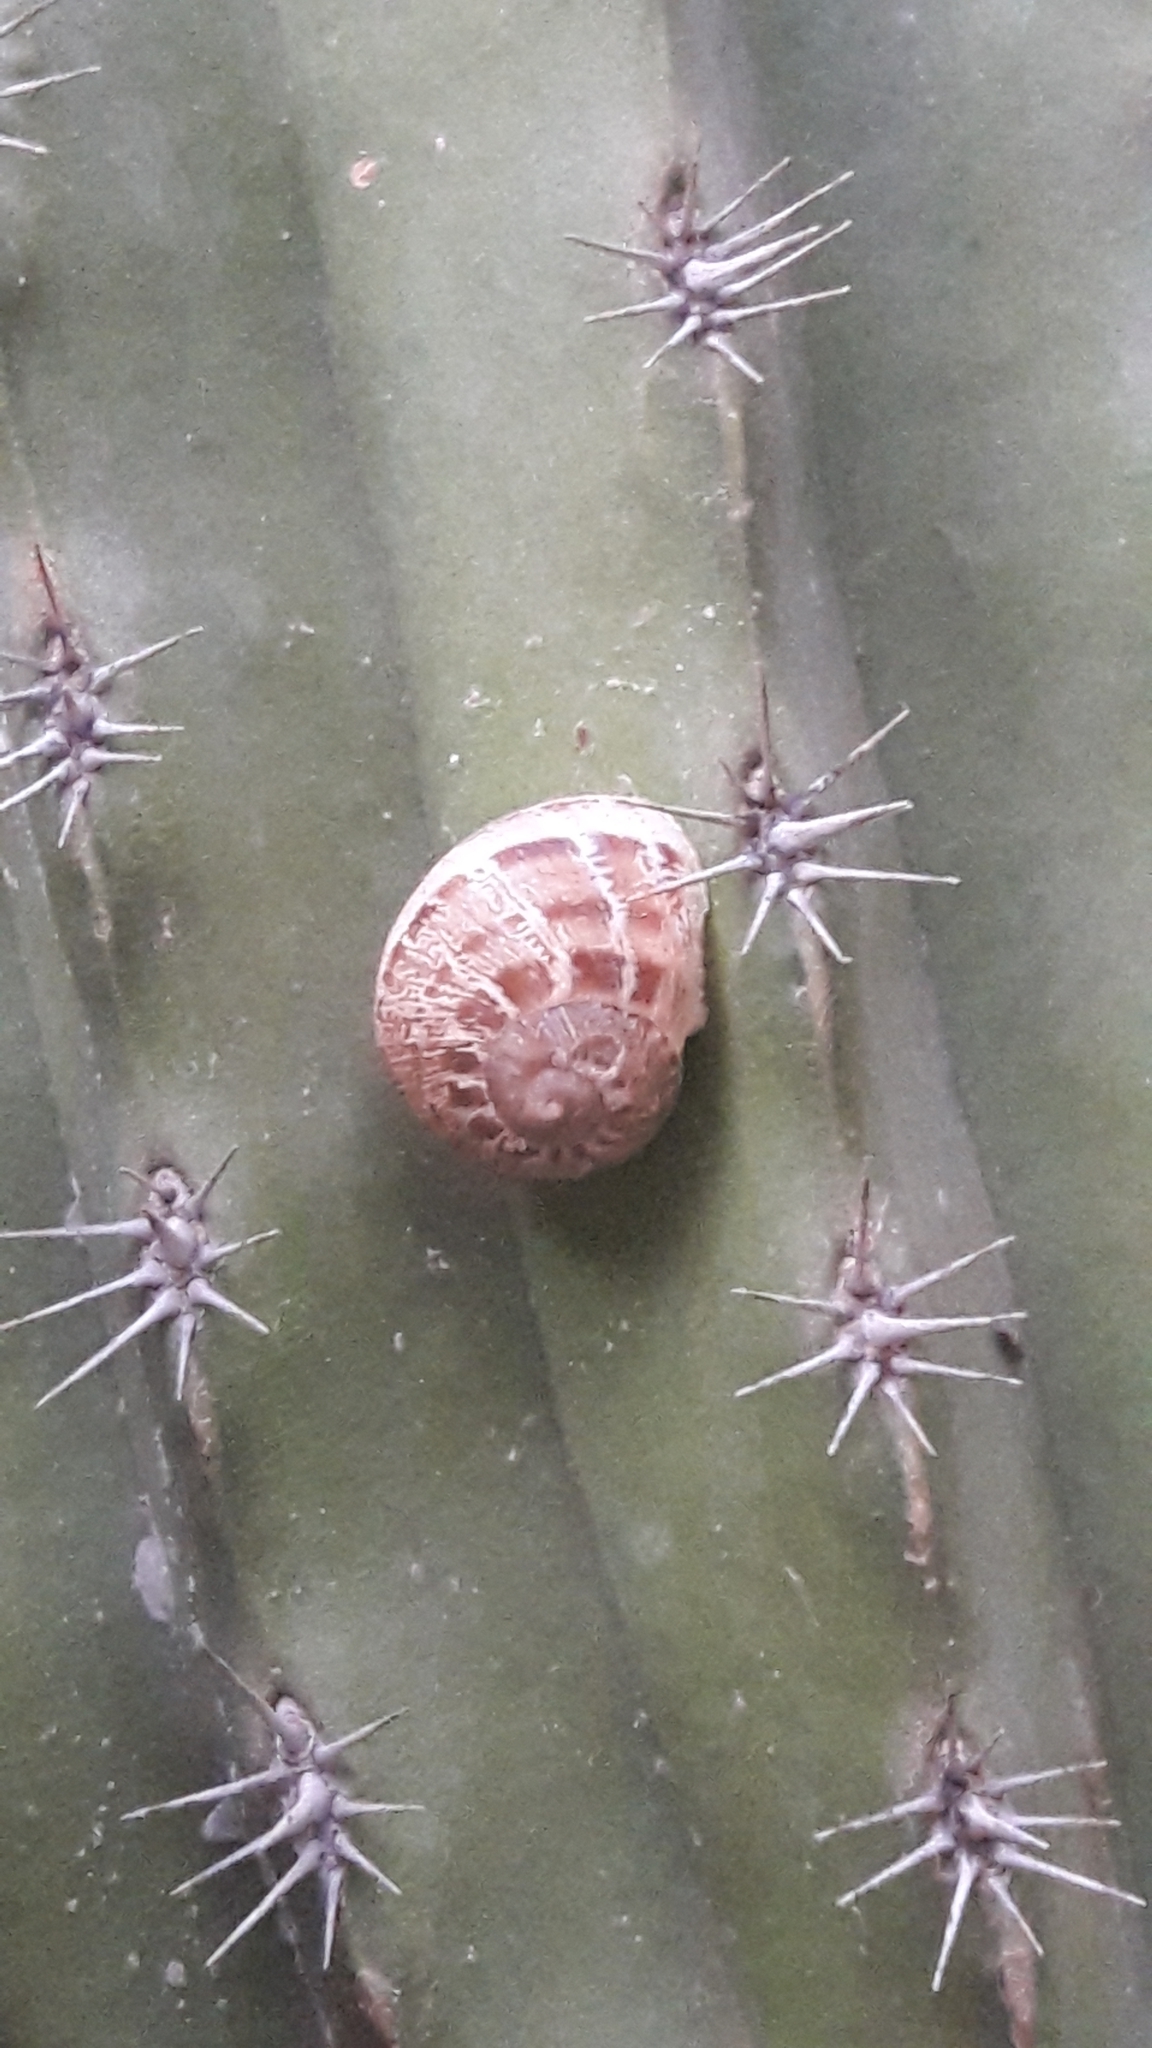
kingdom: Animalia
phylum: Mollusca
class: Gastropoda
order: Stylommatophora
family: Helicidae
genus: Cornu
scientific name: Cornu aspersum
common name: Brown garden snail
